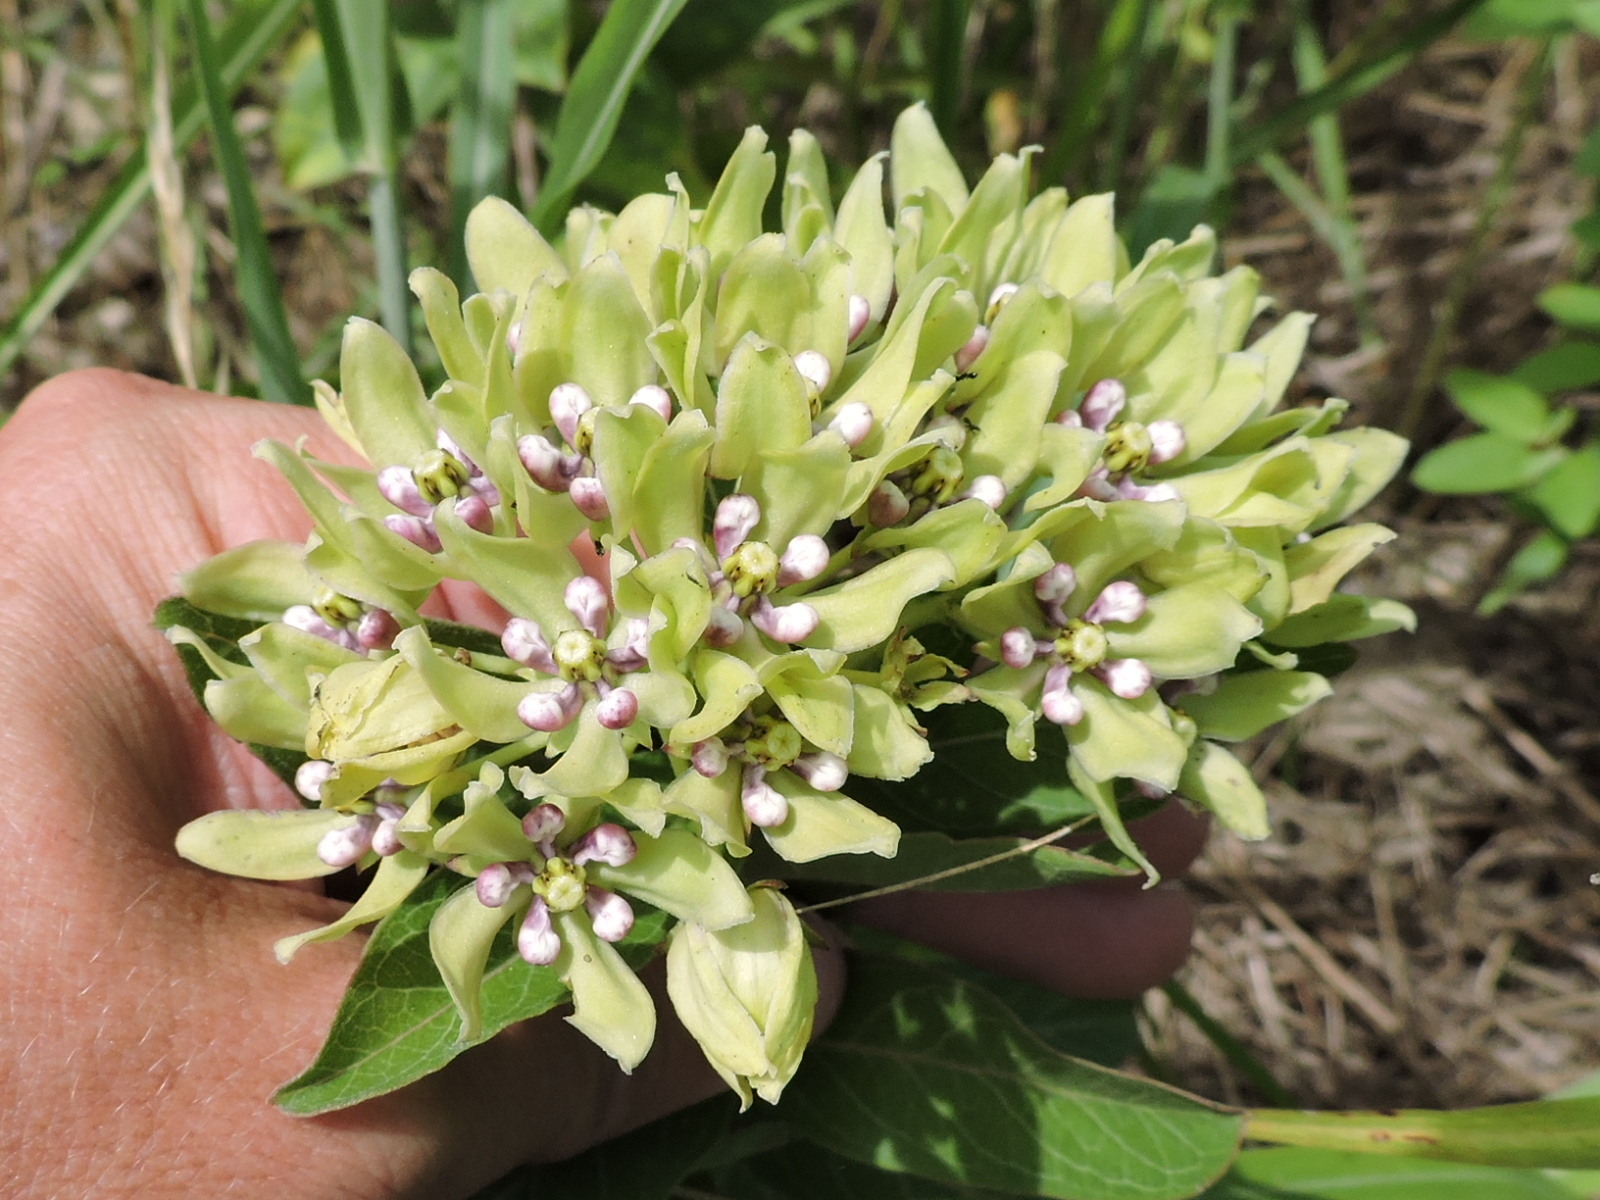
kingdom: Plantae
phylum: Tracheophyta
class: Magnoliopsida
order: Gentianales
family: Apocynaceae
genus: Asclepias
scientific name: Asclepias viridis
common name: Antelope-horns
